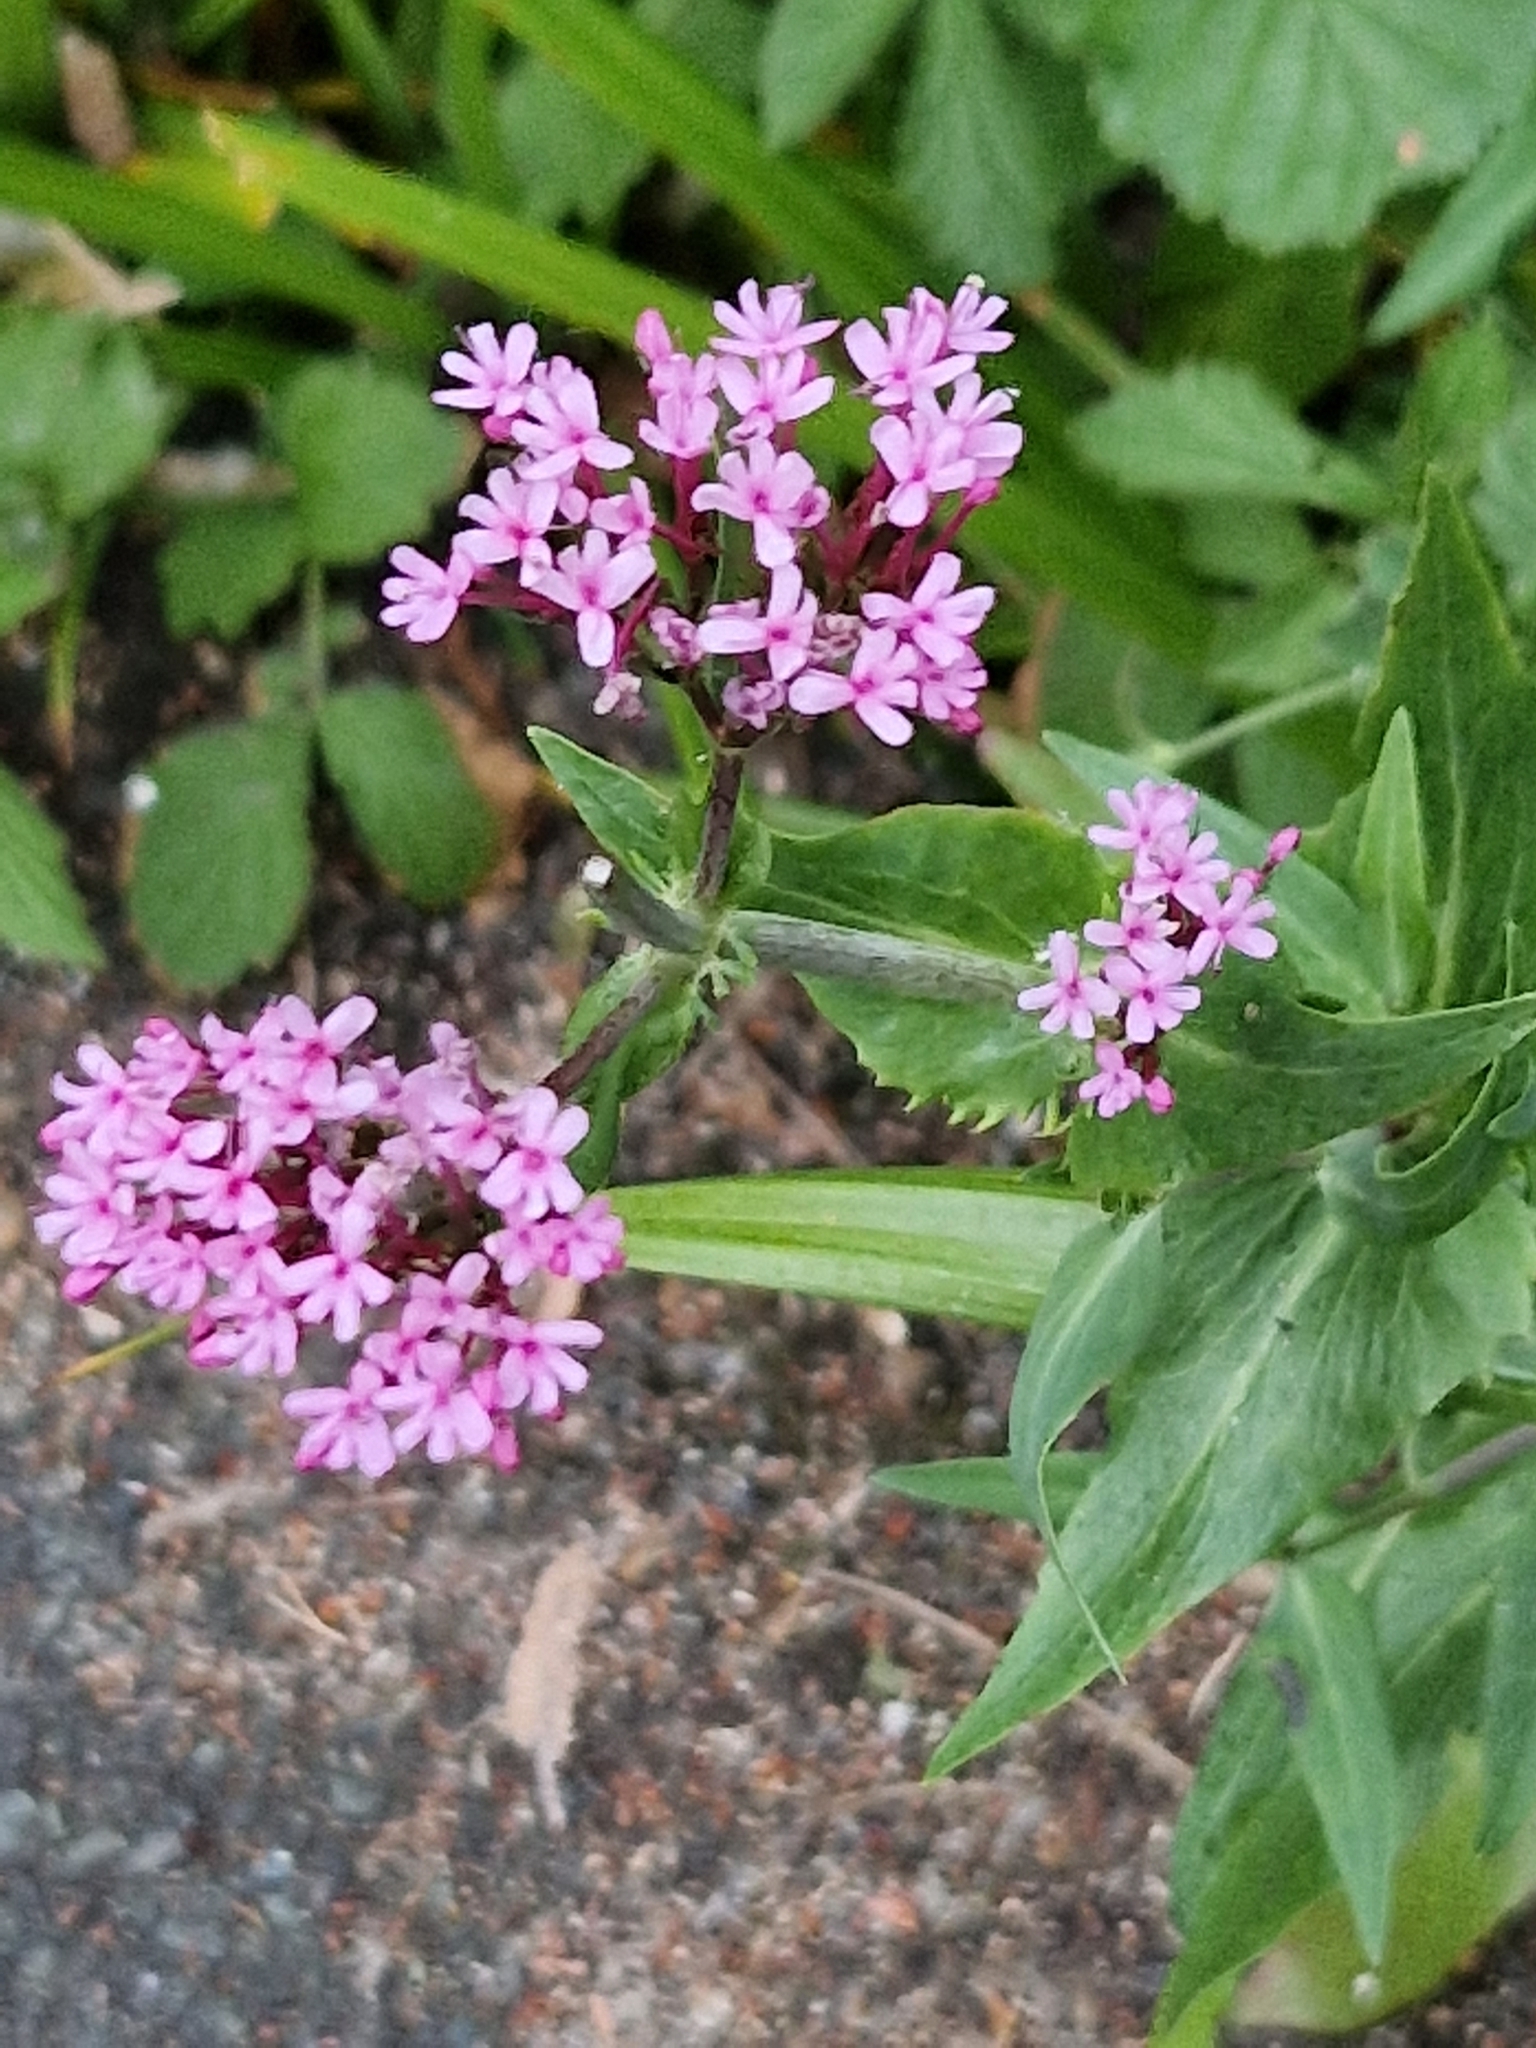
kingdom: Plantae
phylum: Tracheophyta
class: Magnoliopsida
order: Dipsacales
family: Caprifoliaceae
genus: Centranthus
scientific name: Centranthus ruber
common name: Red valerian
